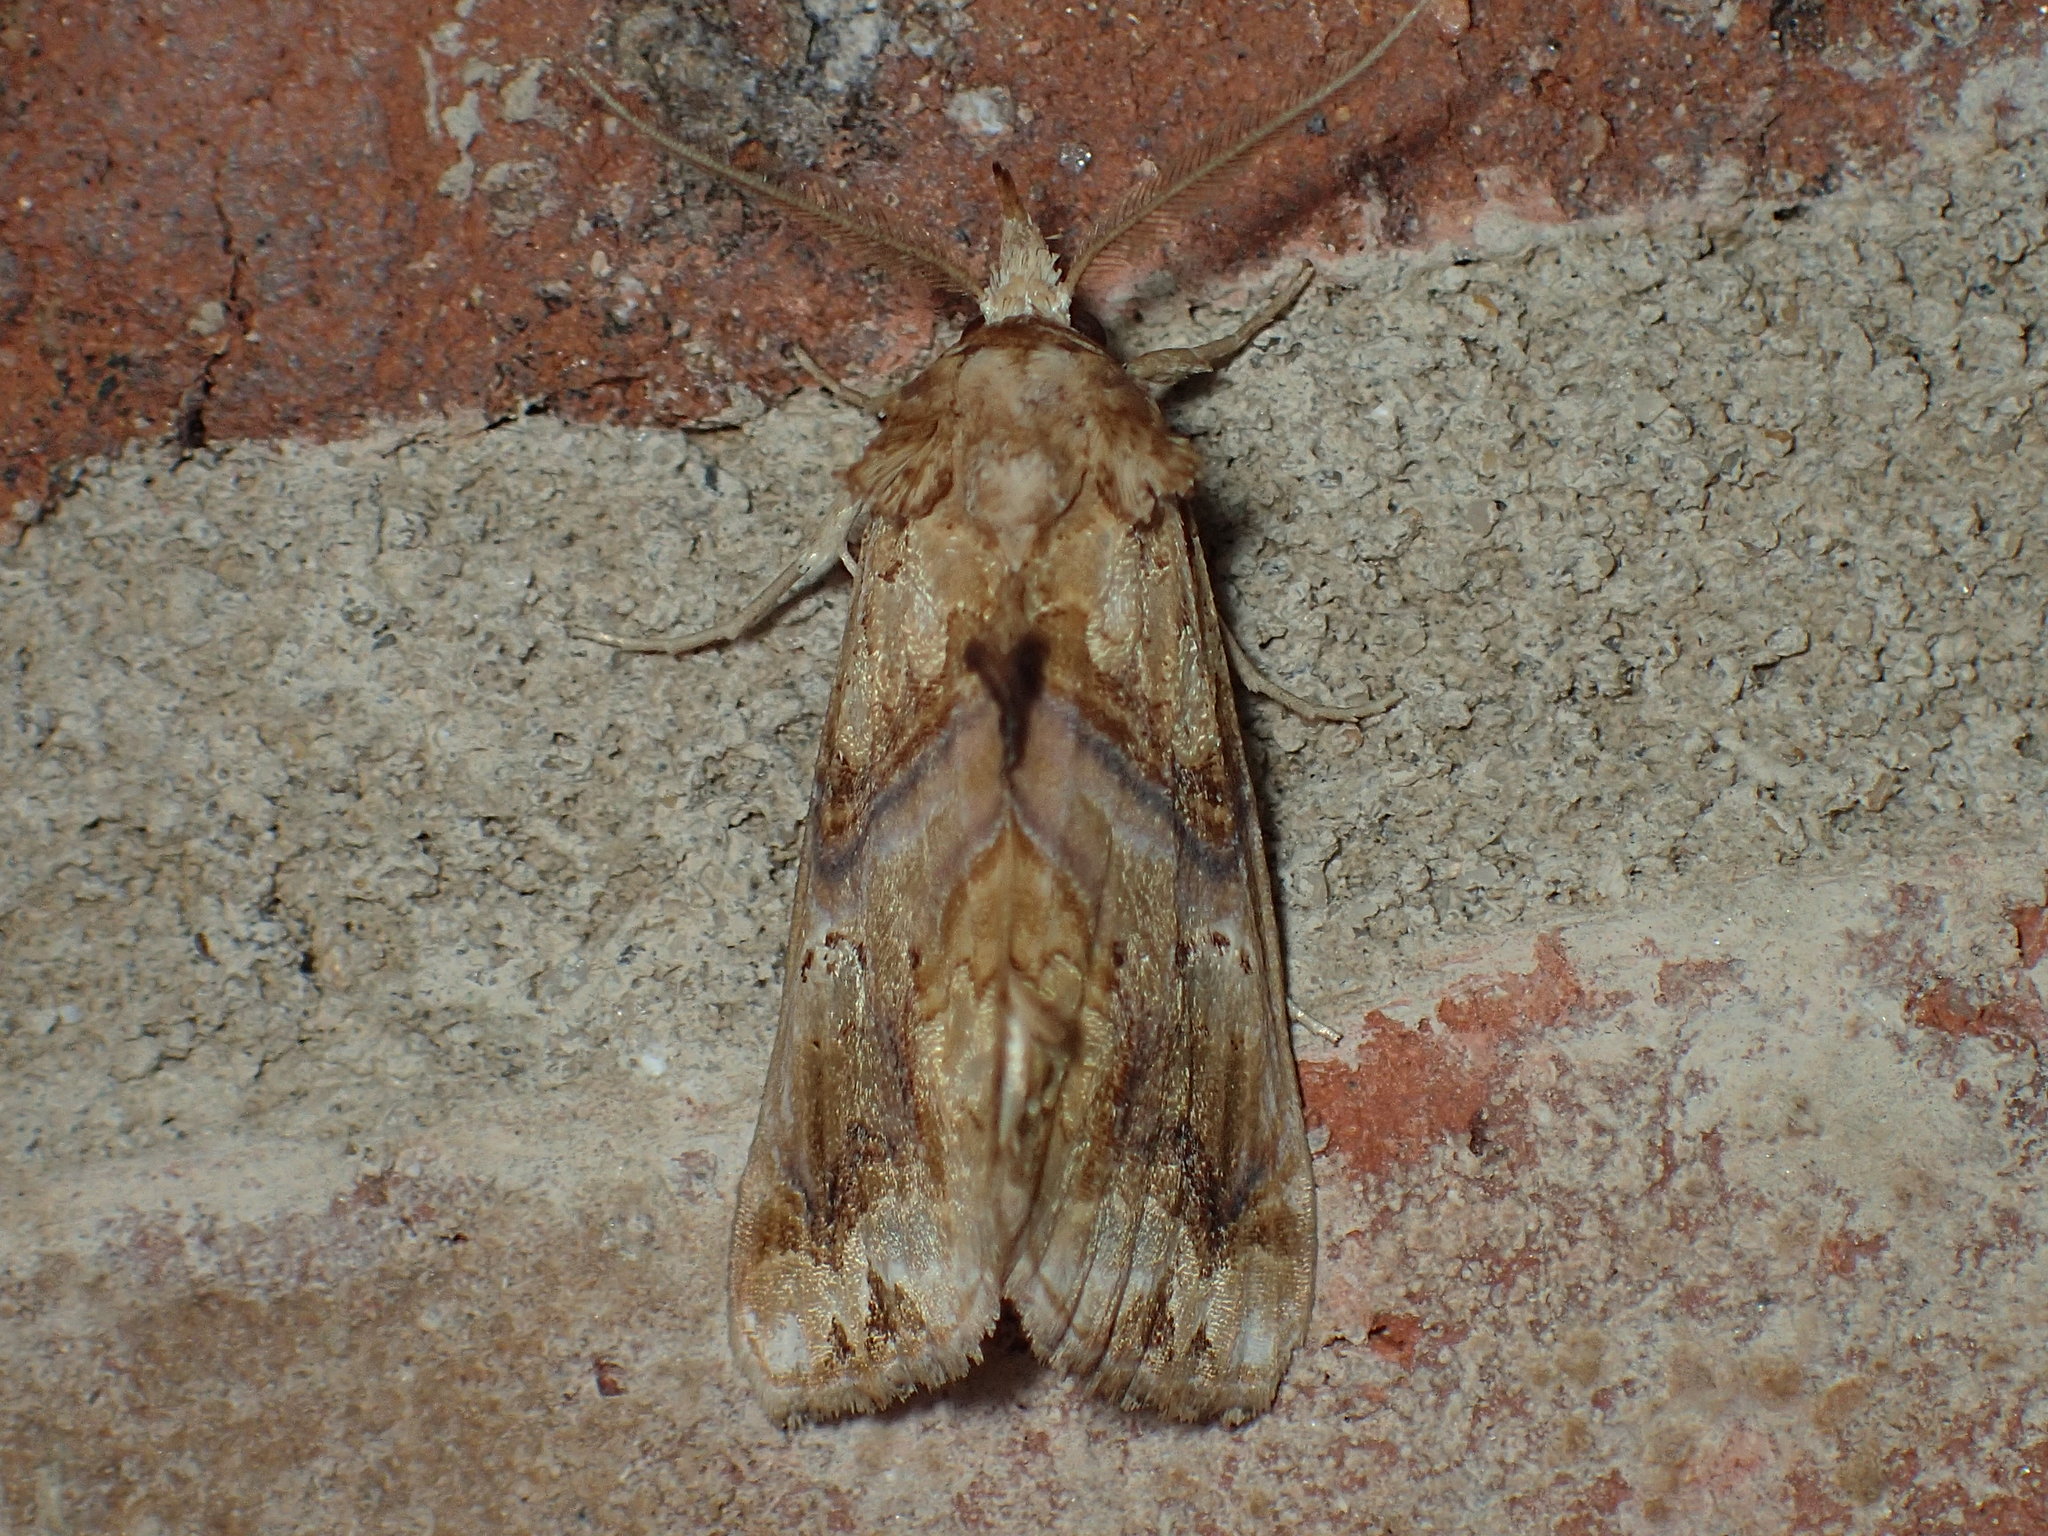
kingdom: Animalia
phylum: Arthropoda
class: Insecta
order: Lepidoptera
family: Erebidae
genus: Plusiodonta
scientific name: Plusiodonta compressipalpis
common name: Moonseed moth
